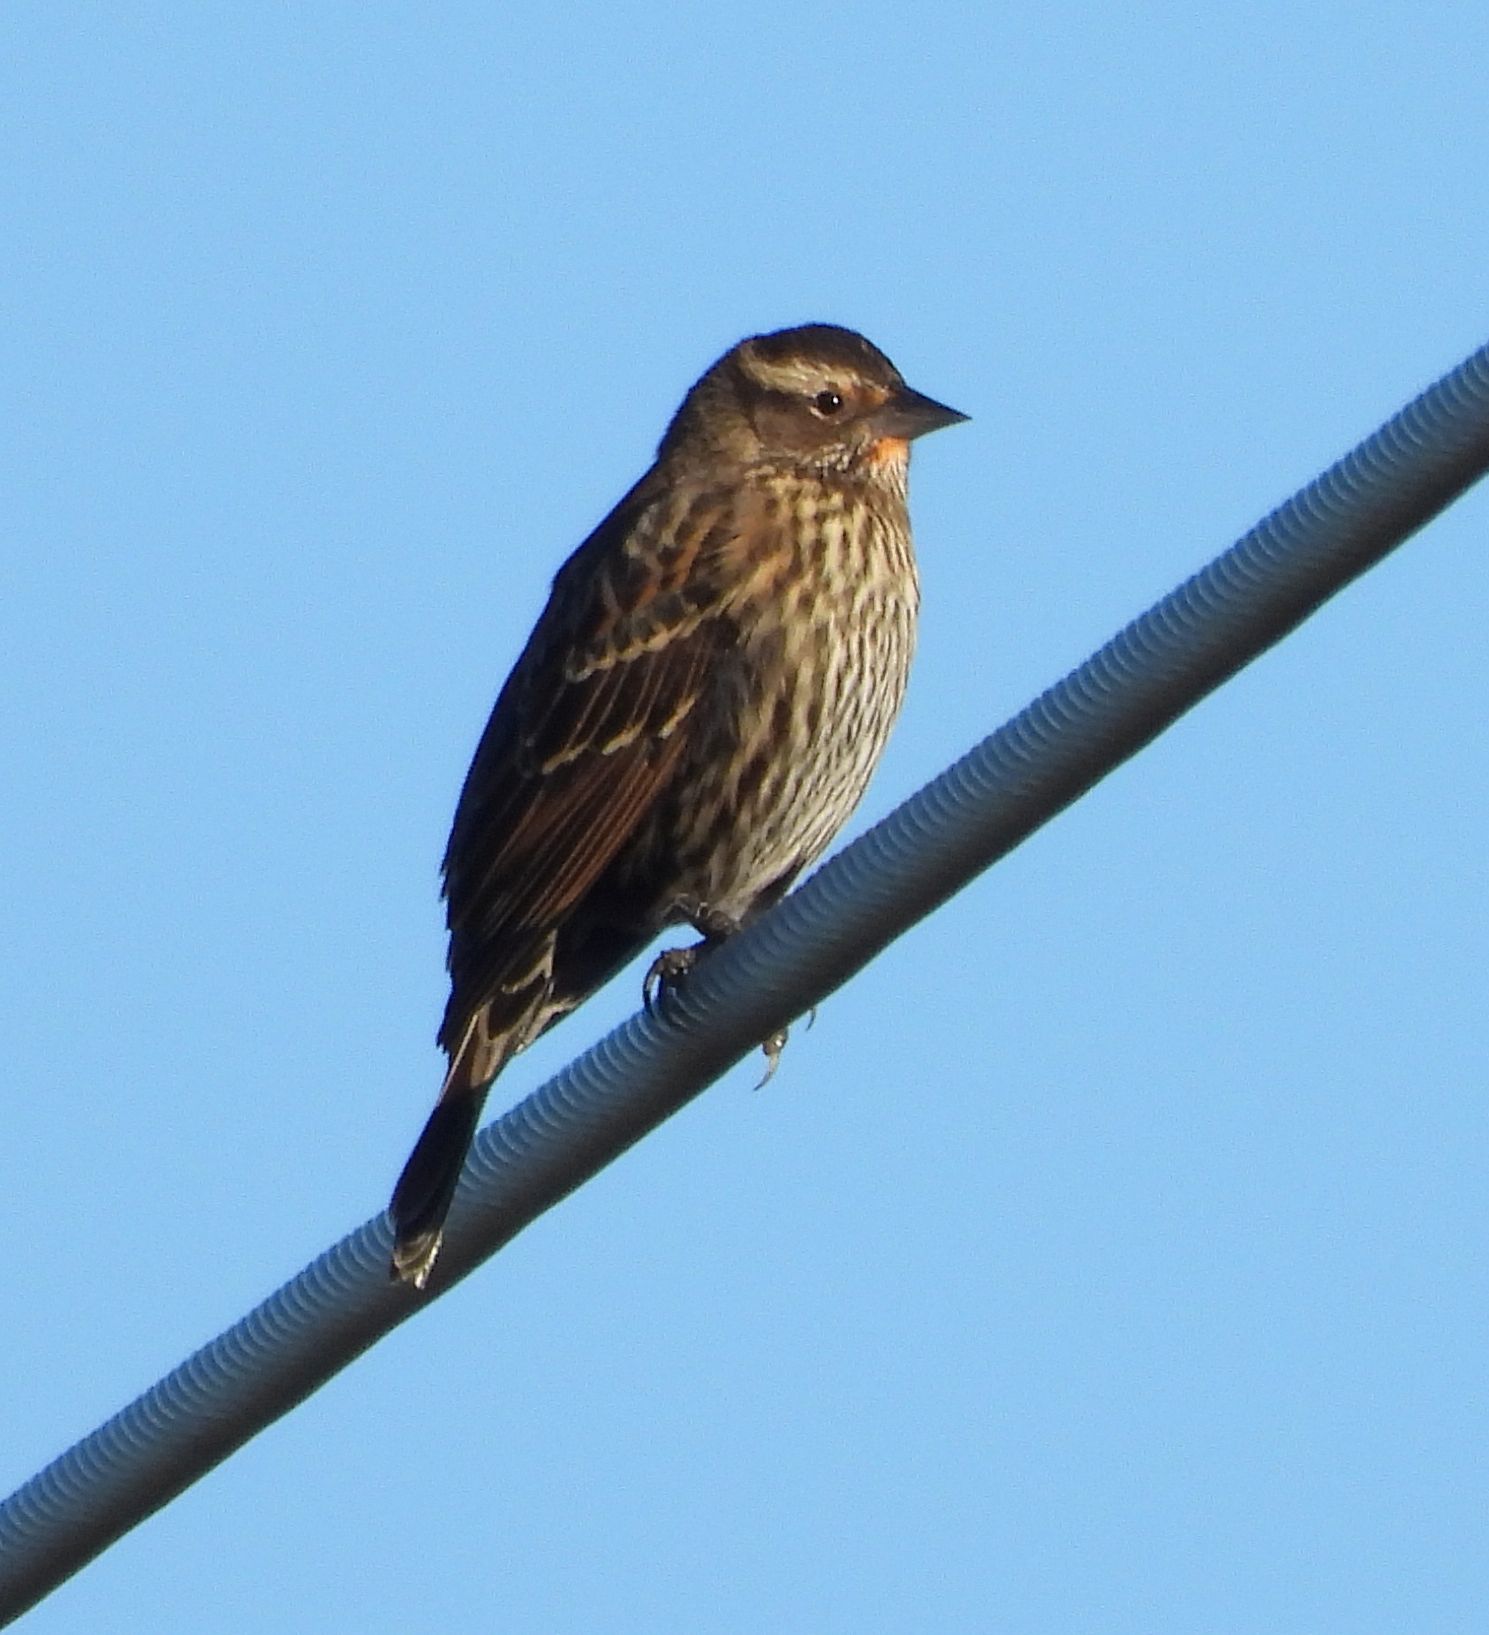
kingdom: Animalia
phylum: Chordata
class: Aves
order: Passeriformes
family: Icteridae
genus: Agelaius
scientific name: Agelaius phoeniceus
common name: Red-winged blackbird
